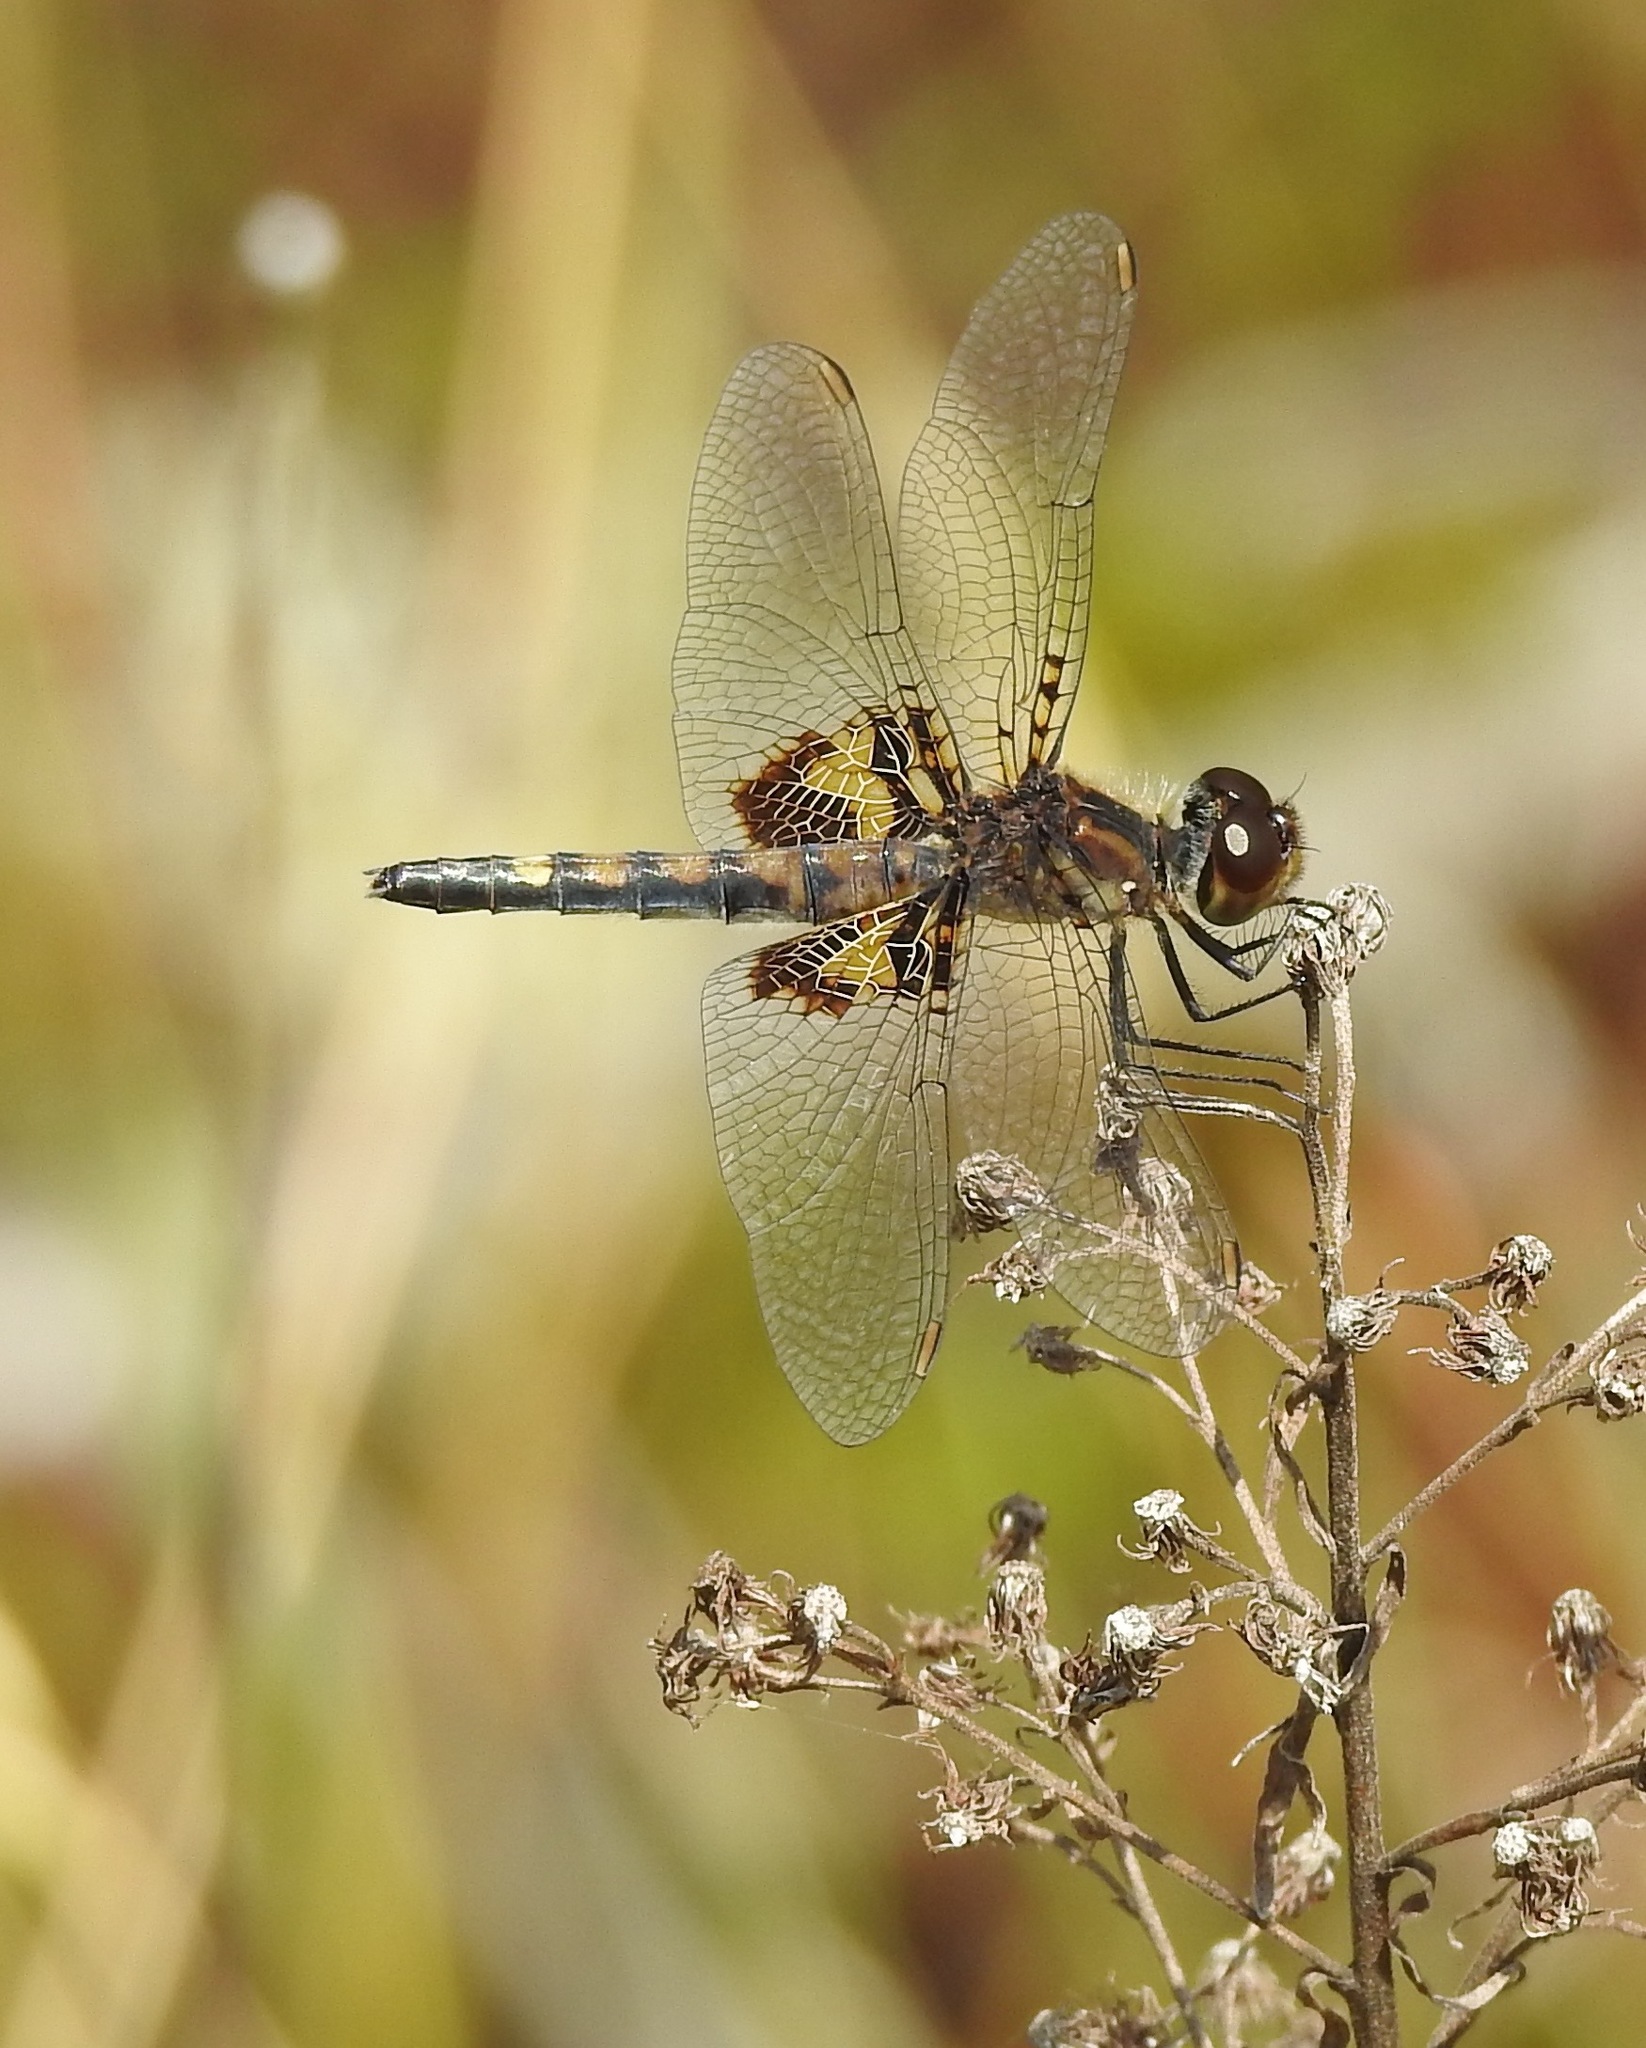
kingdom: Animalia
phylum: Arthropoda
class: Insecta
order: Odonata
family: Libellulidae
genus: Celithemis
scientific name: Celithemis martha
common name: Martha's pennant
